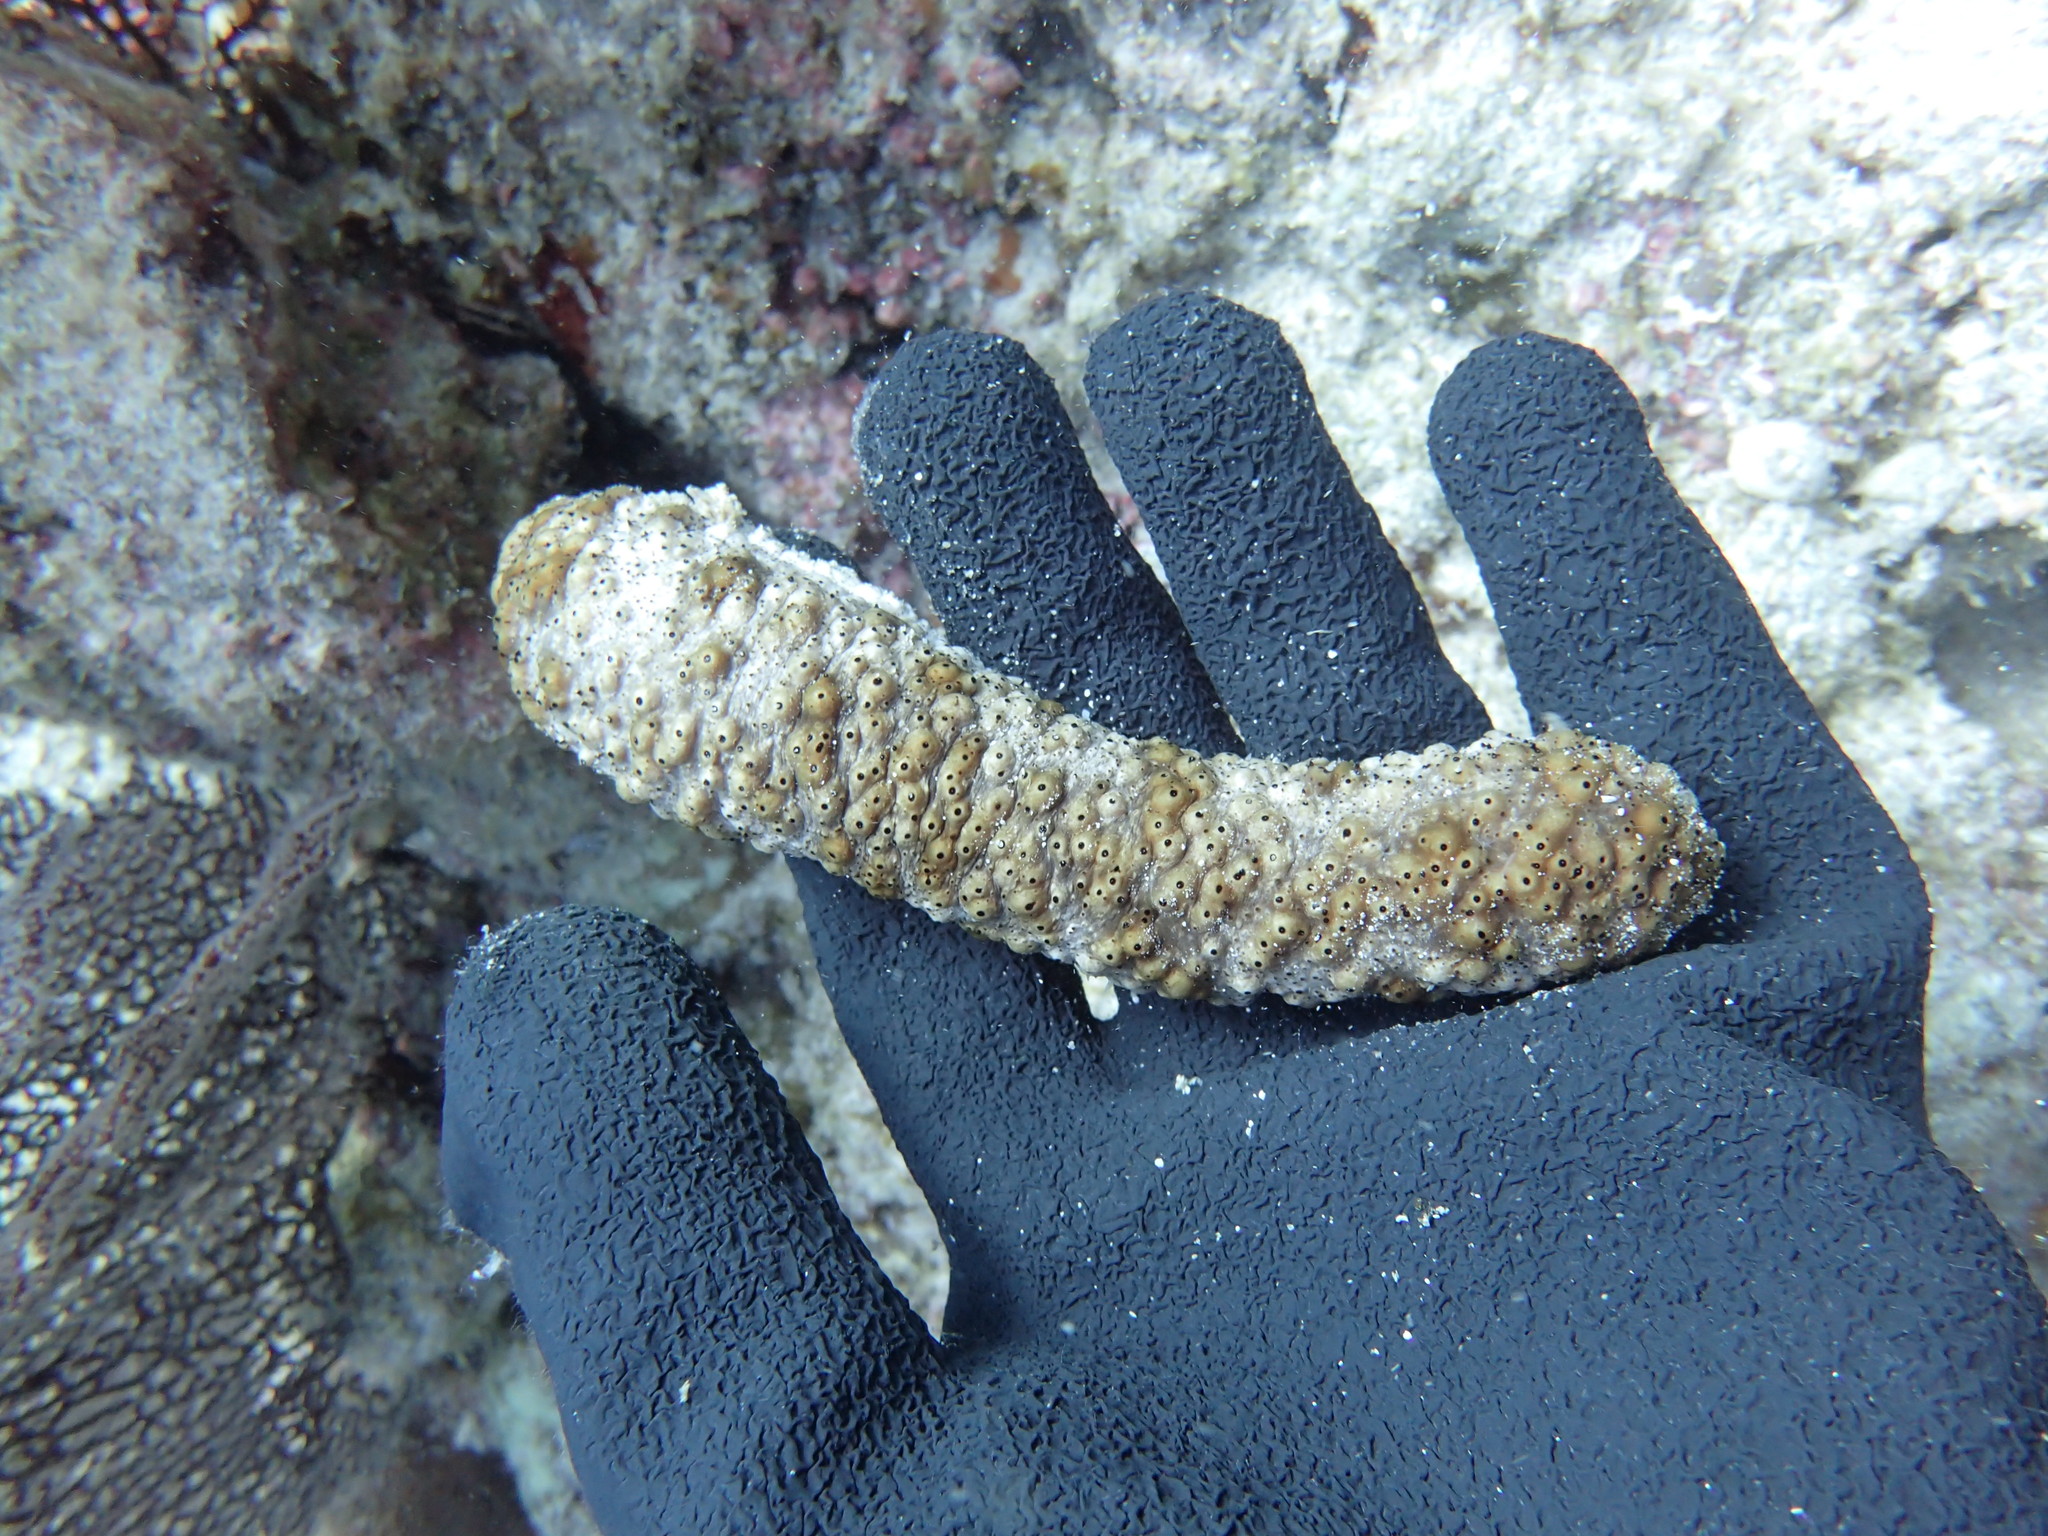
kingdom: Animalia
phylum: Echinodermata
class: Holothuroidea
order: Holothuriida
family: Holothuriidae
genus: Holothuria
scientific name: Holothuria fuscocinerea
